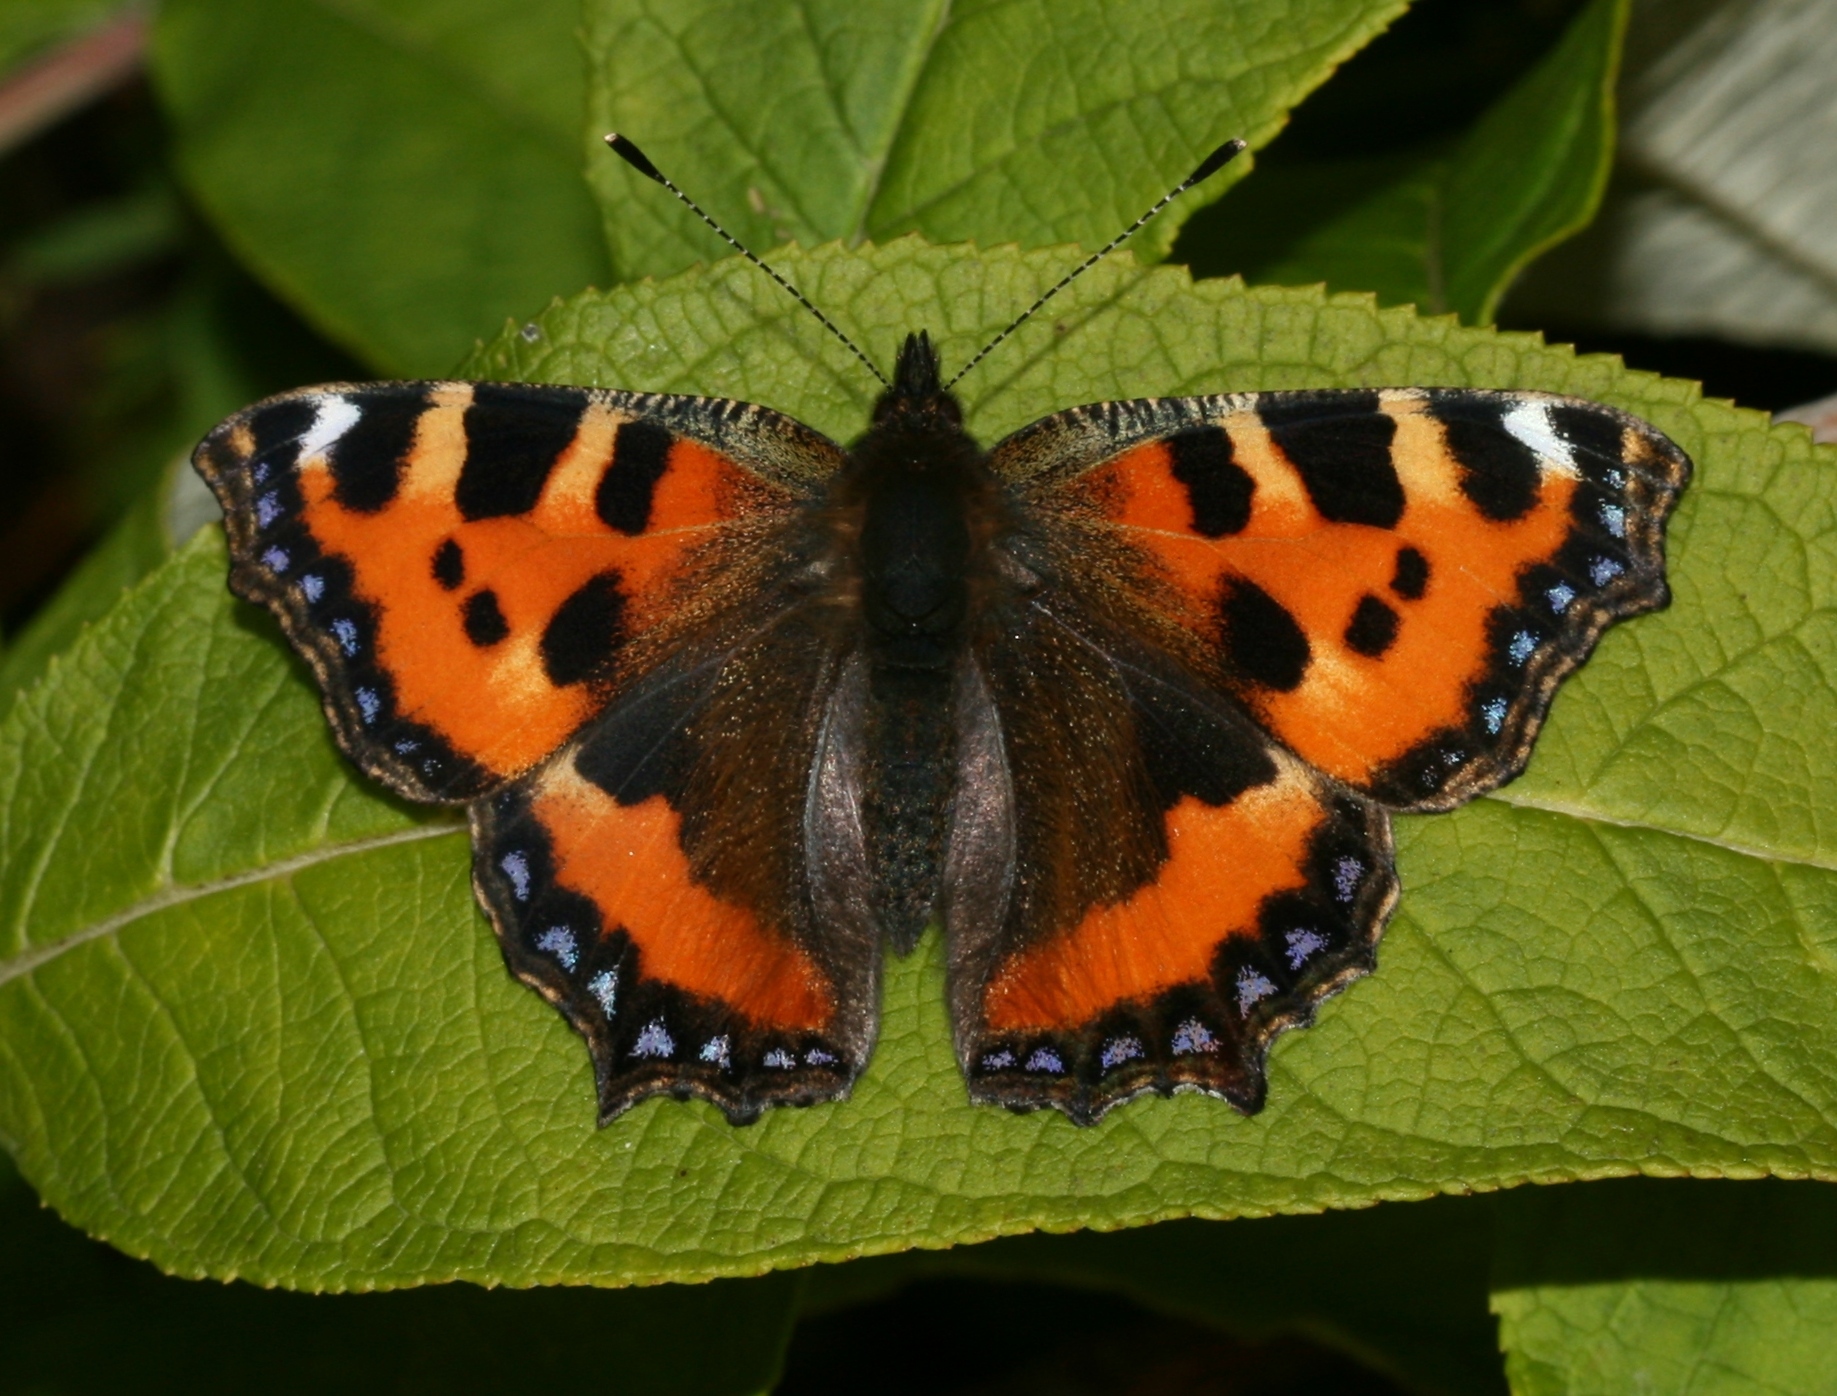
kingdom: Animalia
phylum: Arthropoda
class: Insecta
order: Lepidoptera
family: Nymphalidae
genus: Aglais
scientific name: Aglais urticae
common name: Small tortoiseshell
